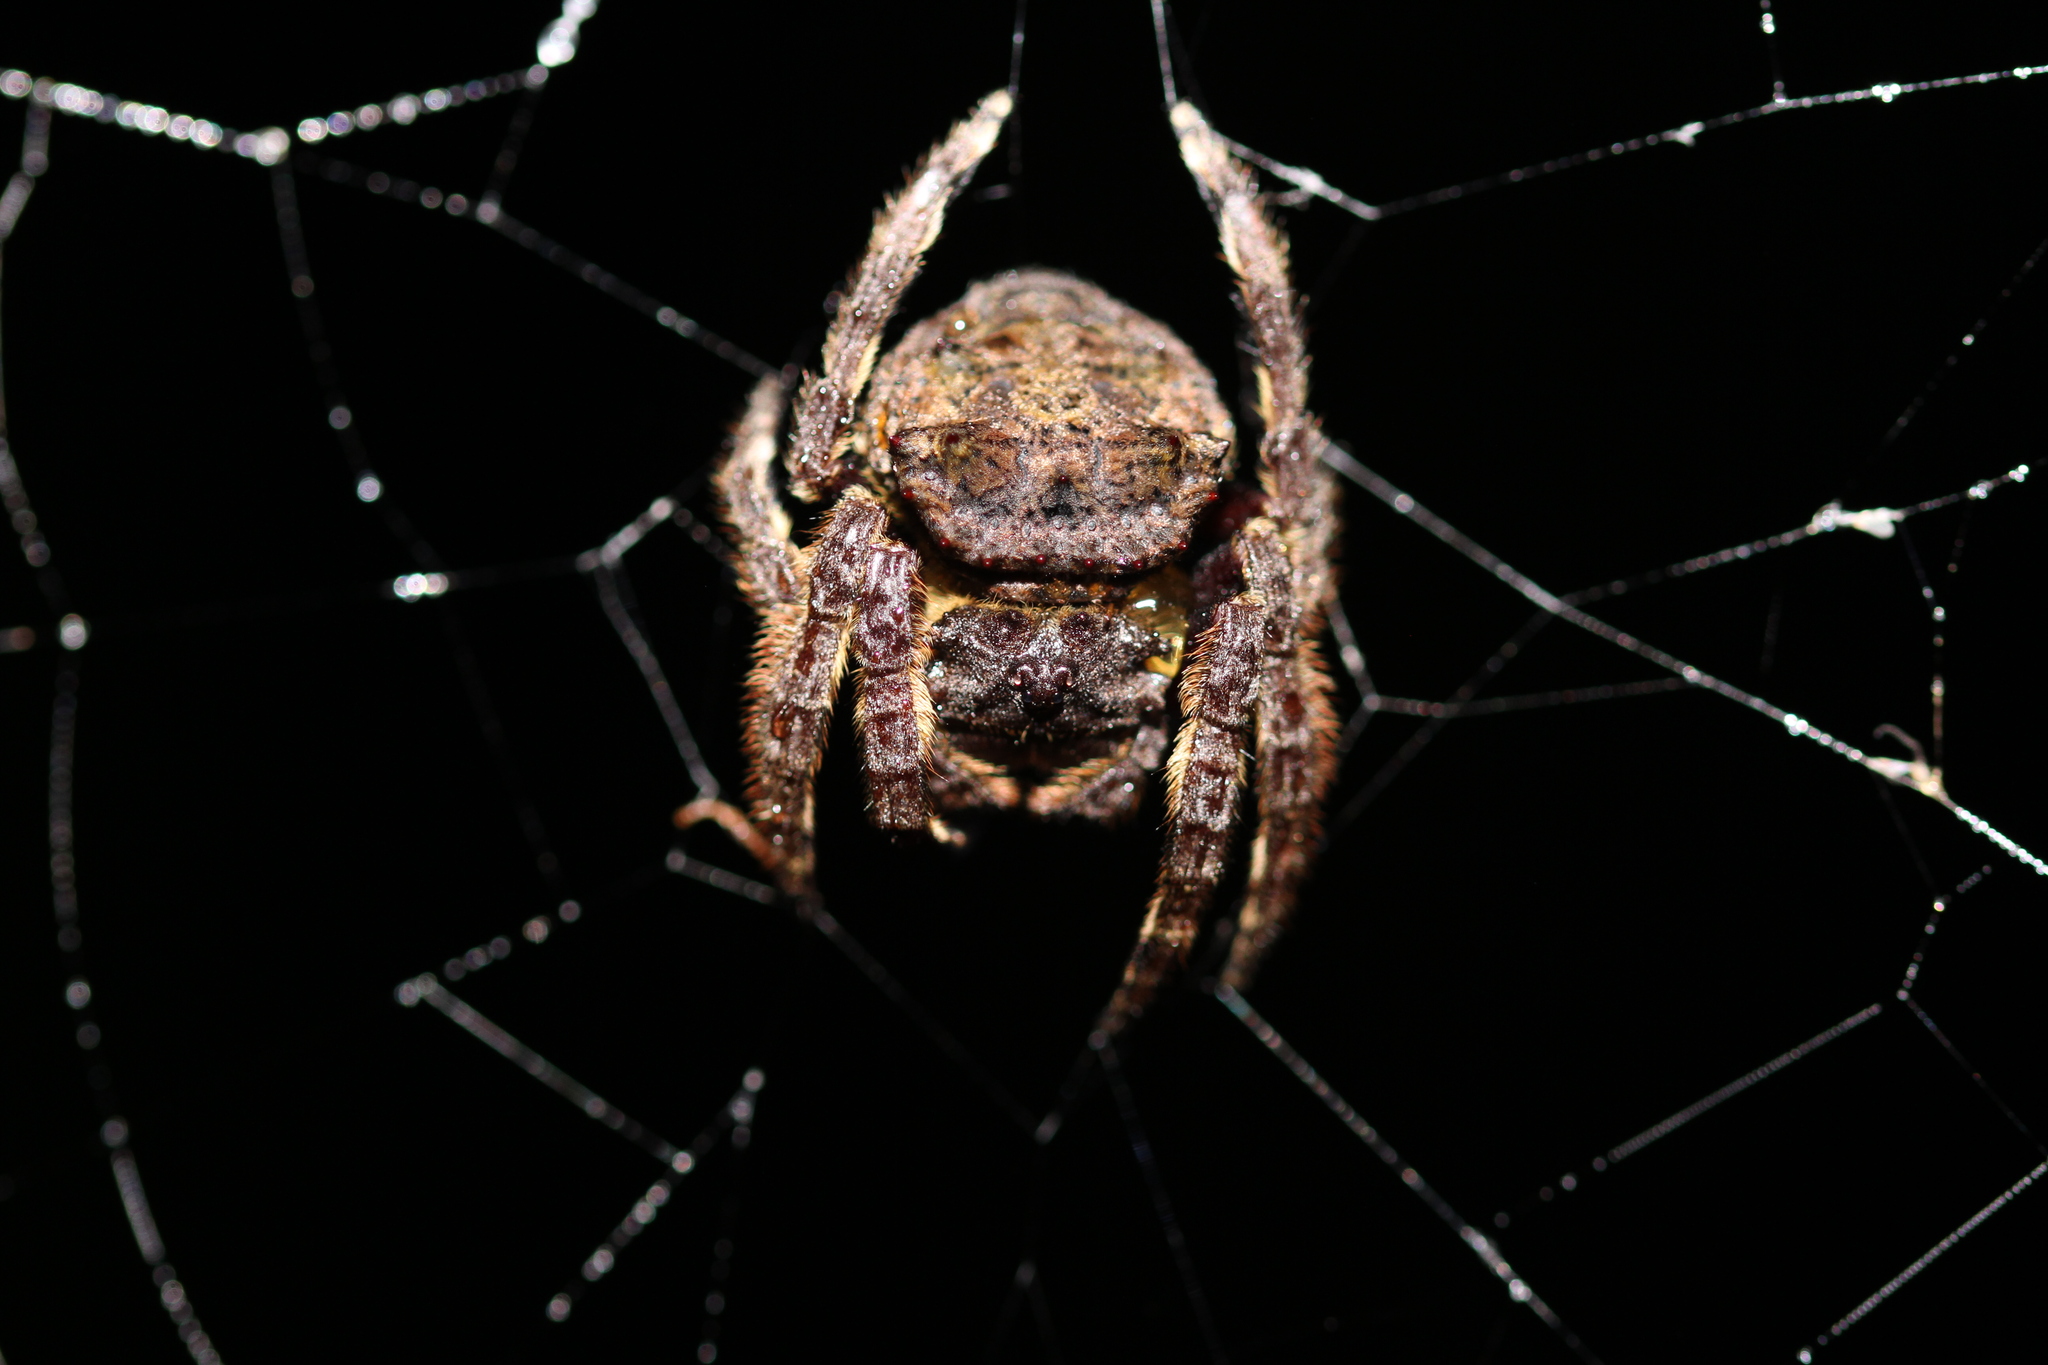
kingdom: Animalia
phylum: Arthropoda
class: Arachnida
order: Araneae
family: Araneidae
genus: Caerostris
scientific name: Caerostris sumatrana
